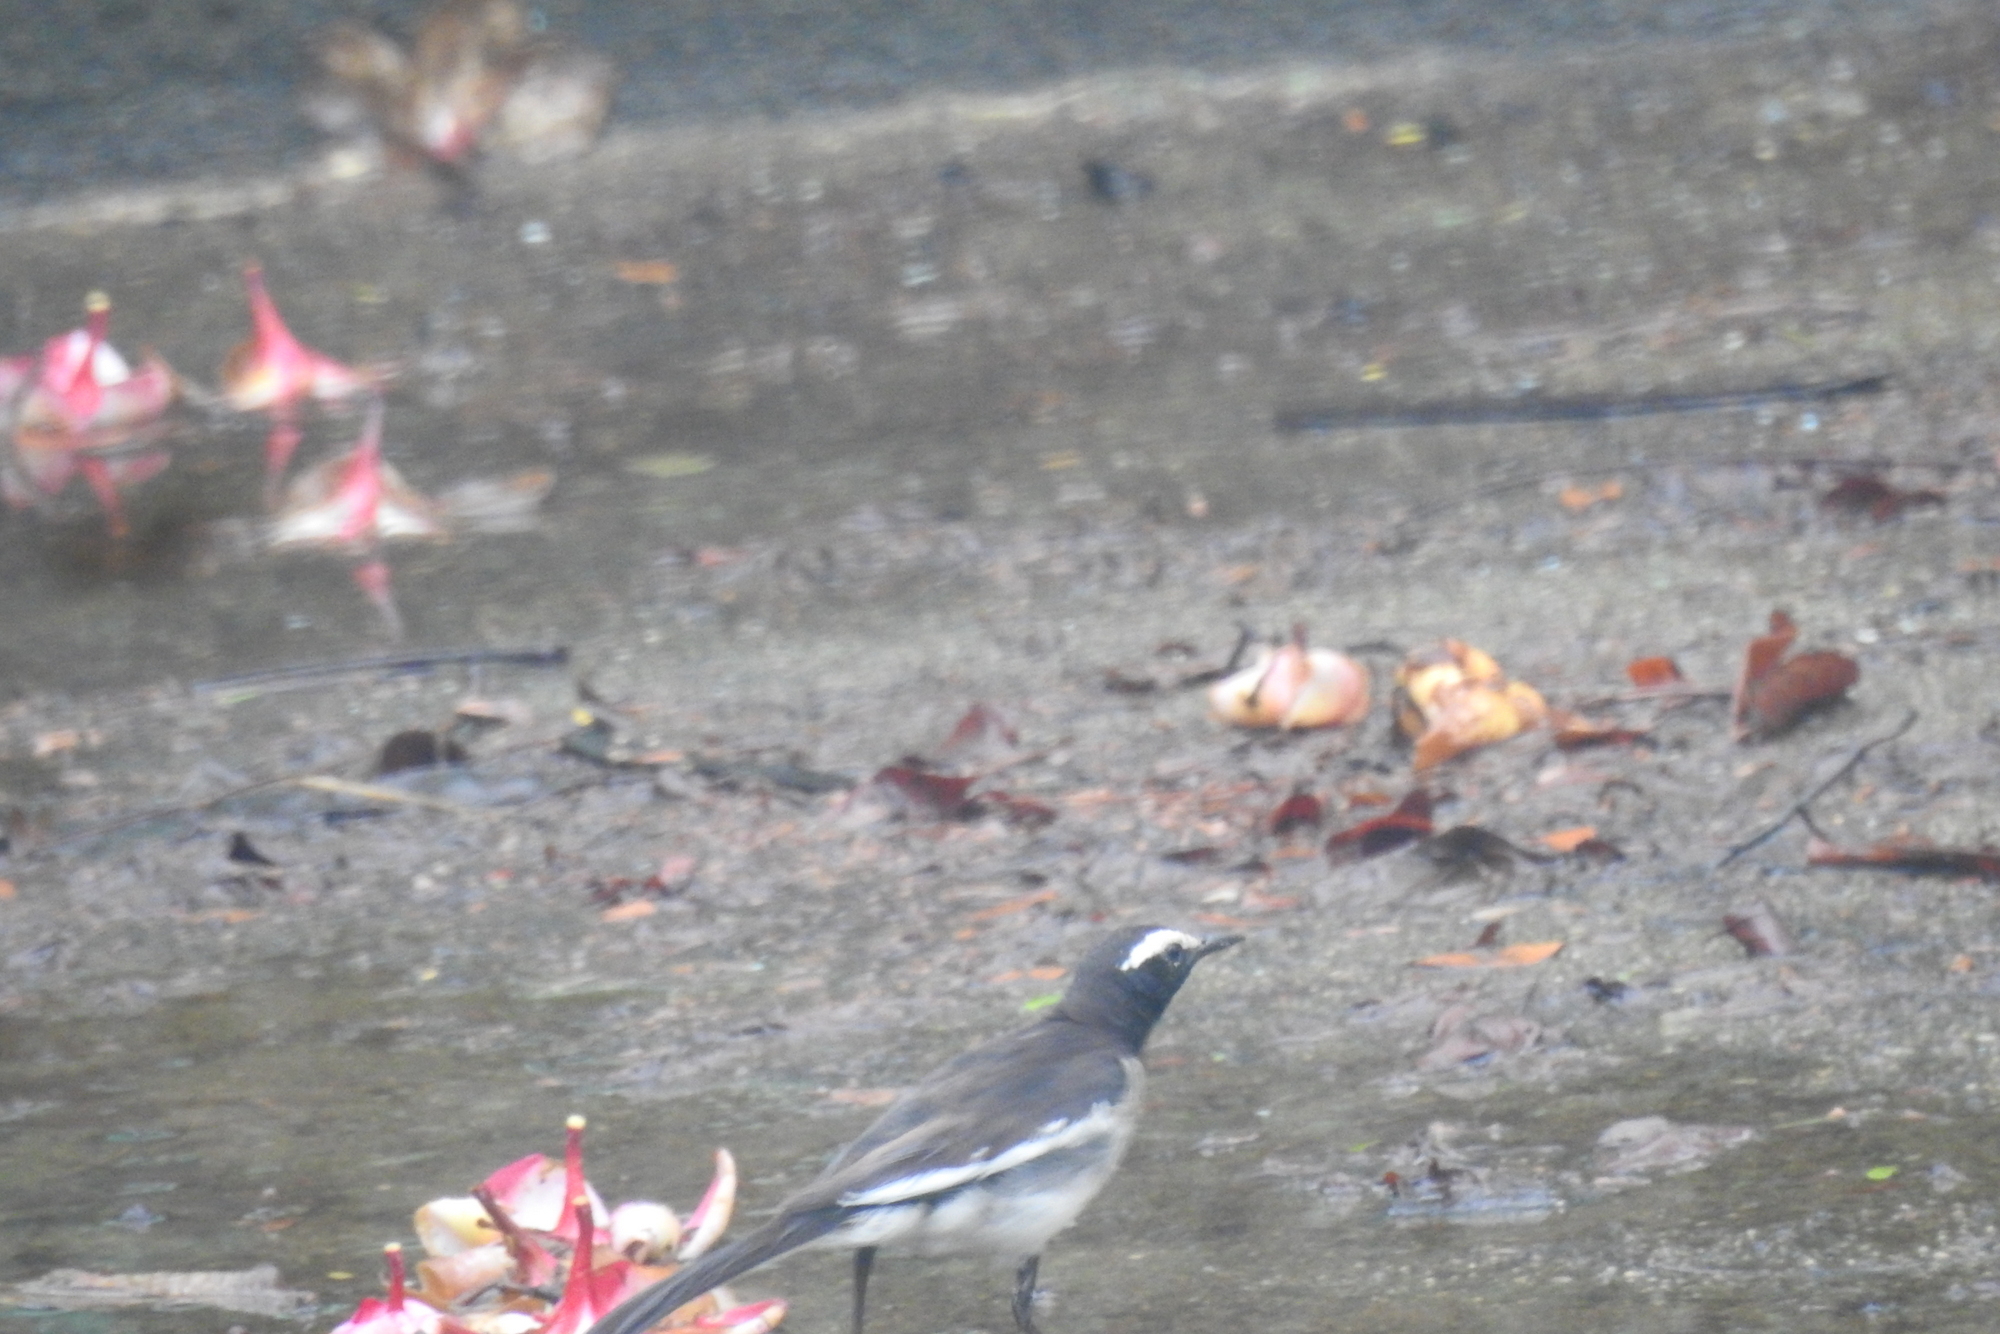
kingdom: Animalia
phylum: Chordata
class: Aves
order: Passeriformes
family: Motacillidae
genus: Motacilla
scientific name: Motacilla maderaspatensis
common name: White-browed wagtail
